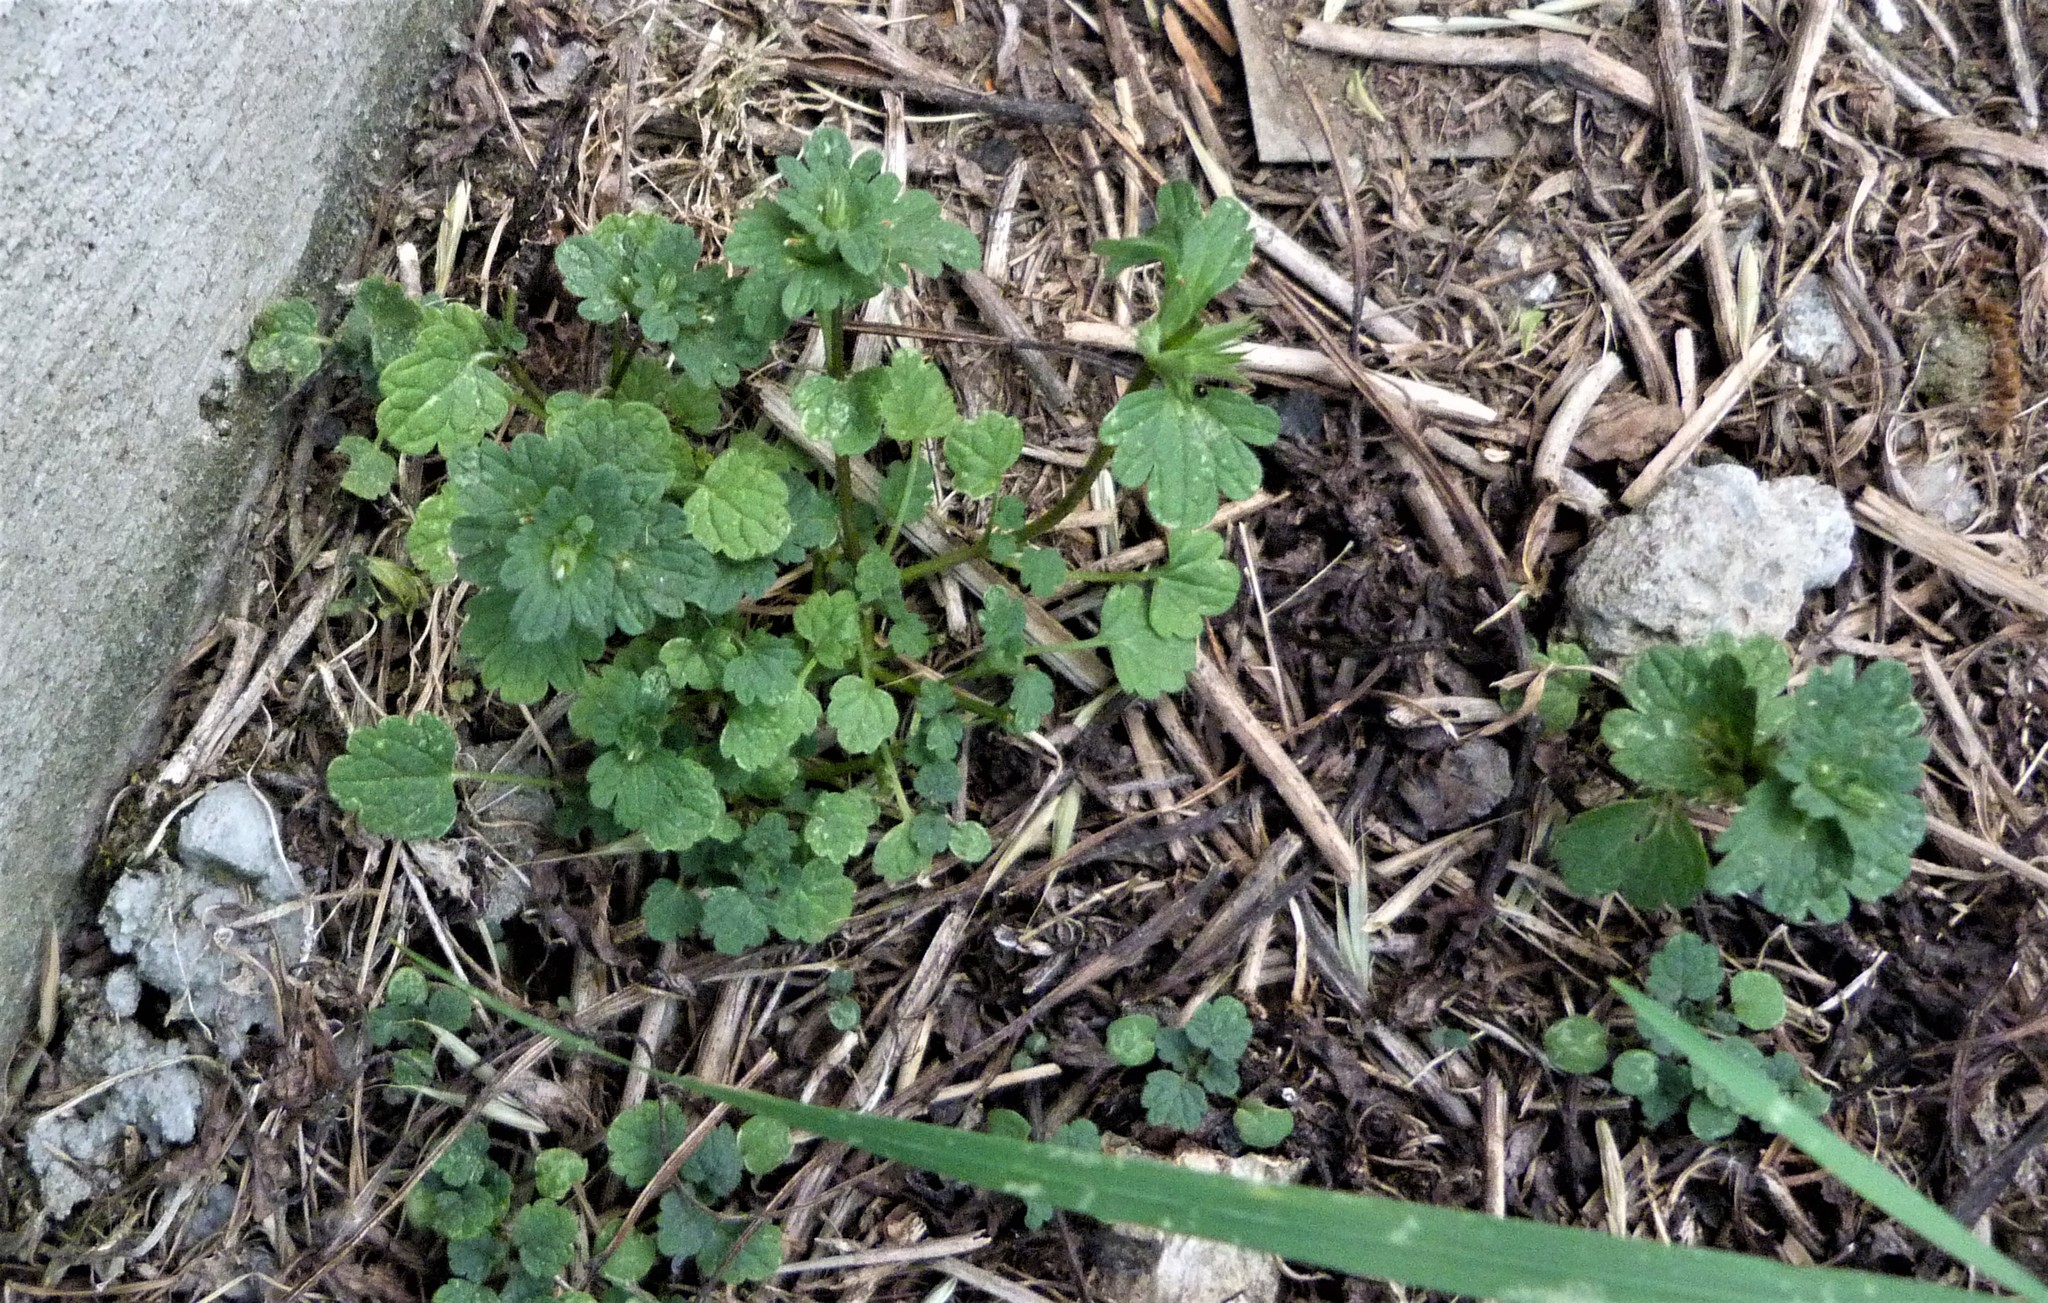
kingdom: Plantae
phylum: Tracheophyta
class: Magnoliopsida
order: Lamiales
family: Lamiaceae
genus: Glechoma
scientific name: Glechoma hederacea
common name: Ground ivy
